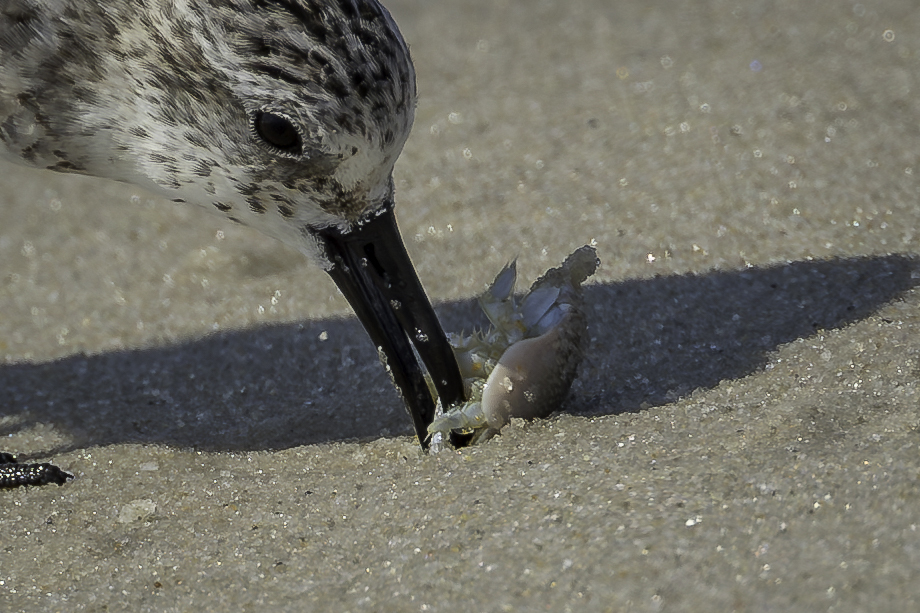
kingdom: Animalia
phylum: Arthropoda
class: Malacostraca
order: Decapoda
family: Hippidae
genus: Emerita
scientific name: Emerita talpoida
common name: Atlantic sand crab
